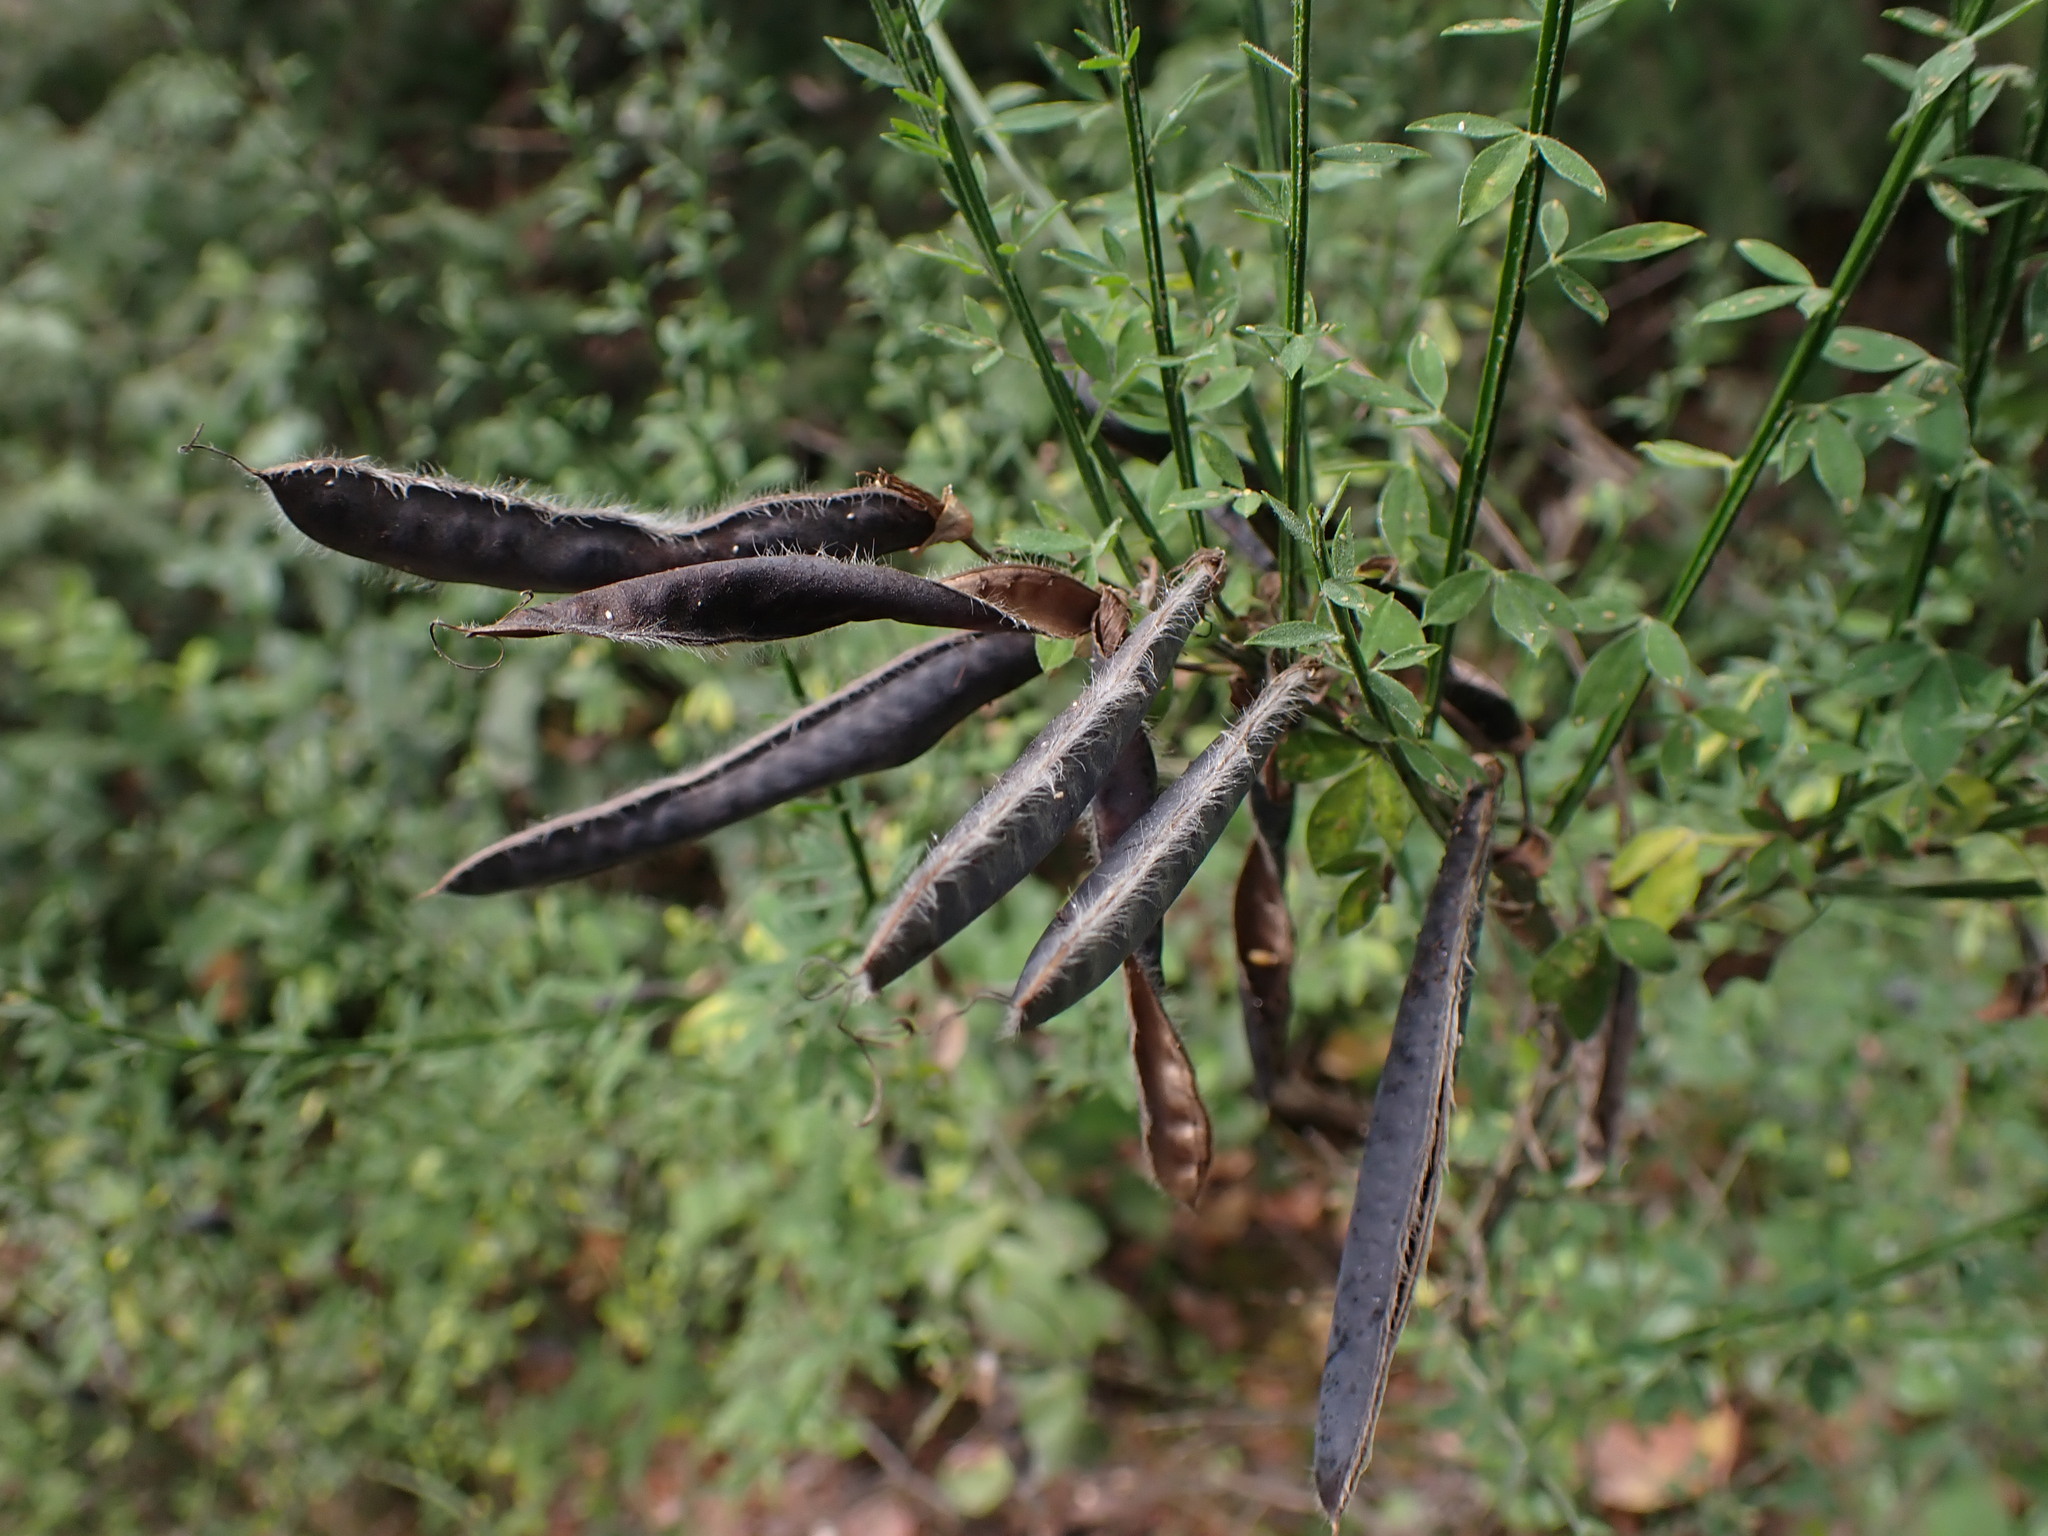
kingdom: Plantae
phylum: Tracheophyta
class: Magnoliopsida
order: Fabales
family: Fabaceae
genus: Cytisus
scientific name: Cytisus scoparius
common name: Scotch broom
